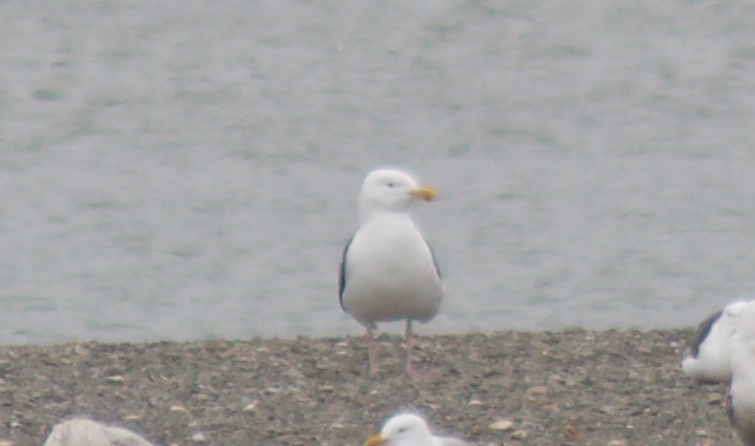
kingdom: Animalia
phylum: Chordata
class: Aves
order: Charadriiformes
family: Laridae
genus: Larus
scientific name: Larus marinus
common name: Great black-backed gull
